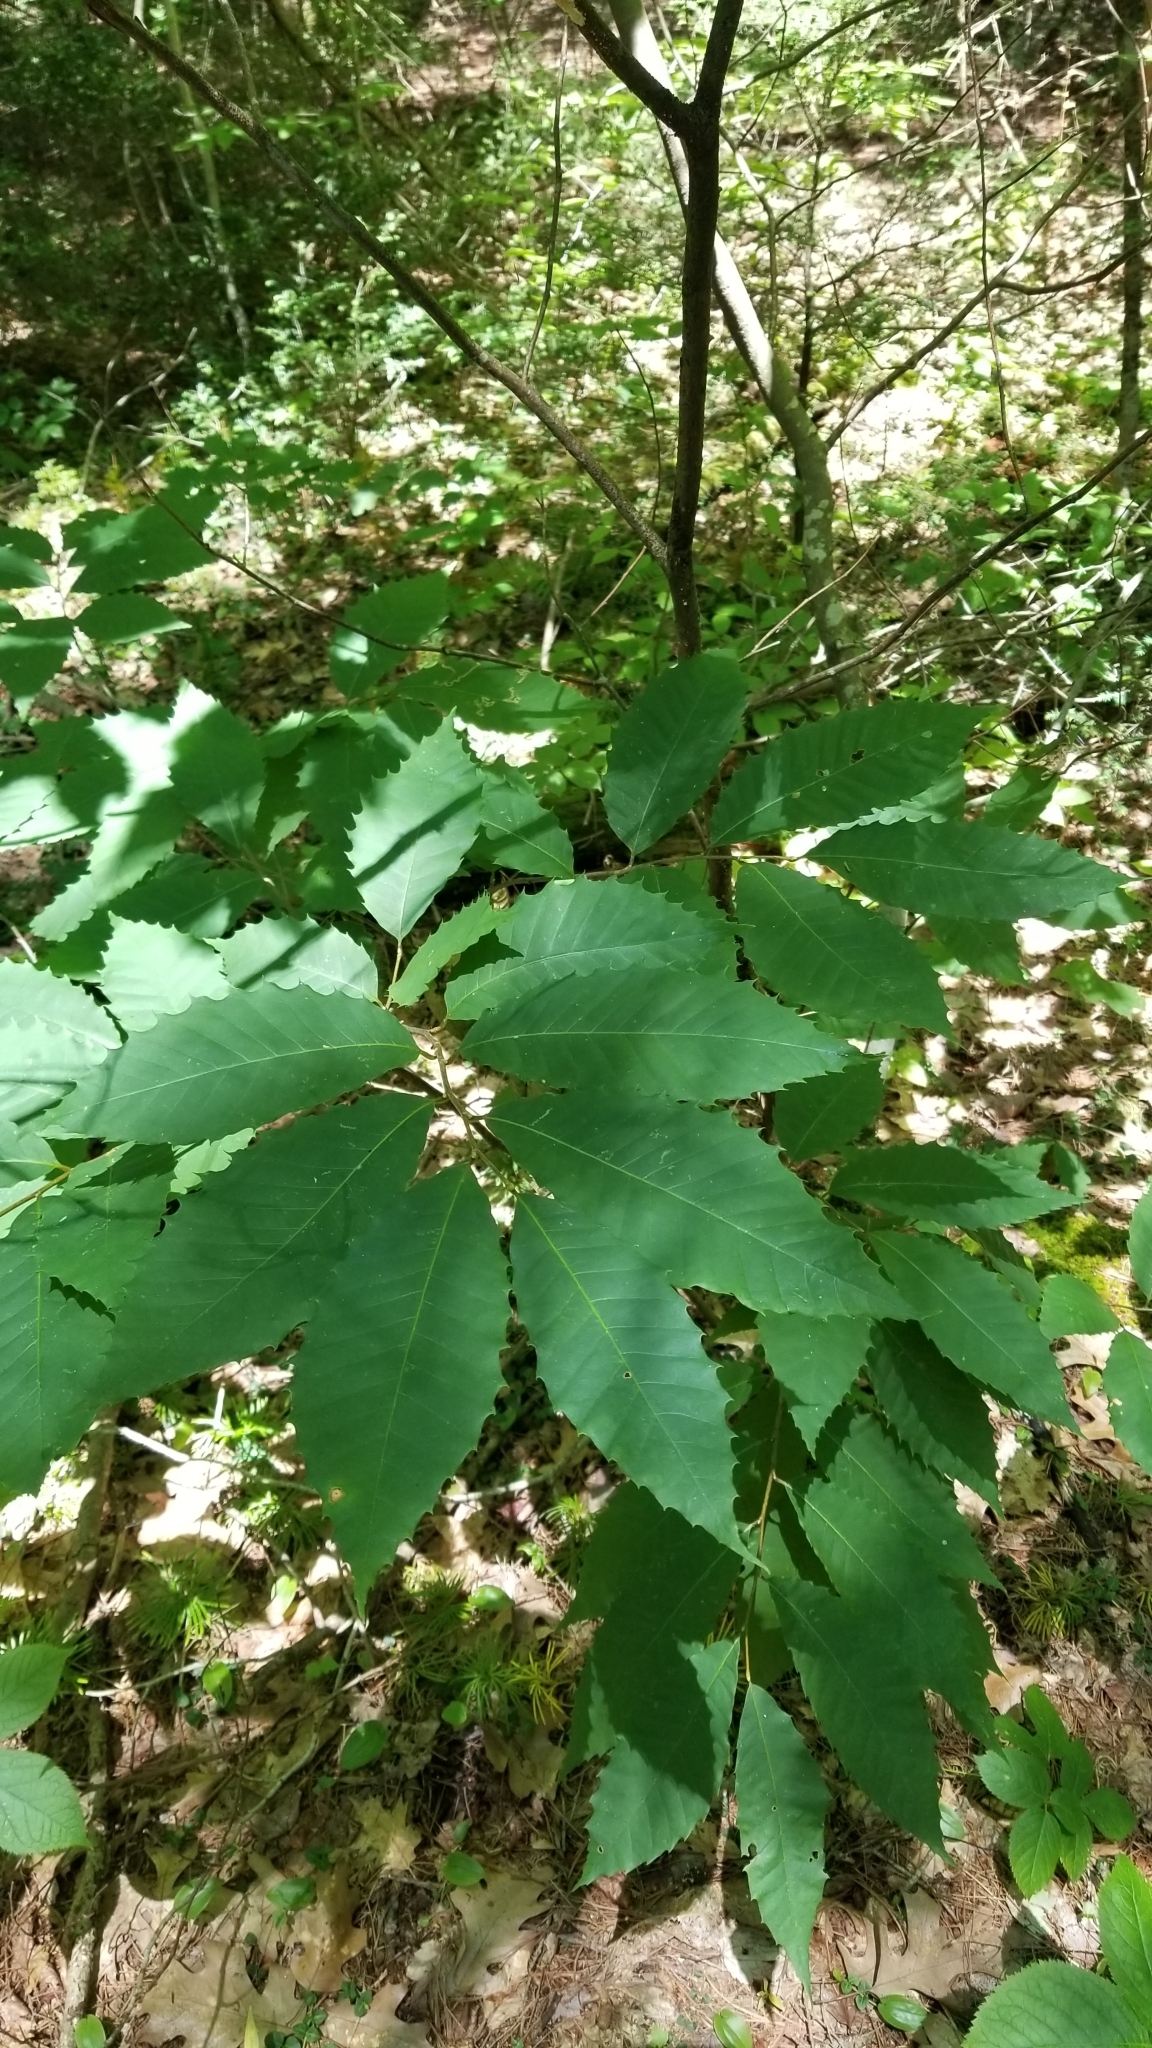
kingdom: Plantae
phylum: Tracheophyta
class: Magnoliopsida
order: Fagales
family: Fagaceae
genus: Castanea
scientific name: Castanea dentata
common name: American chestnut
